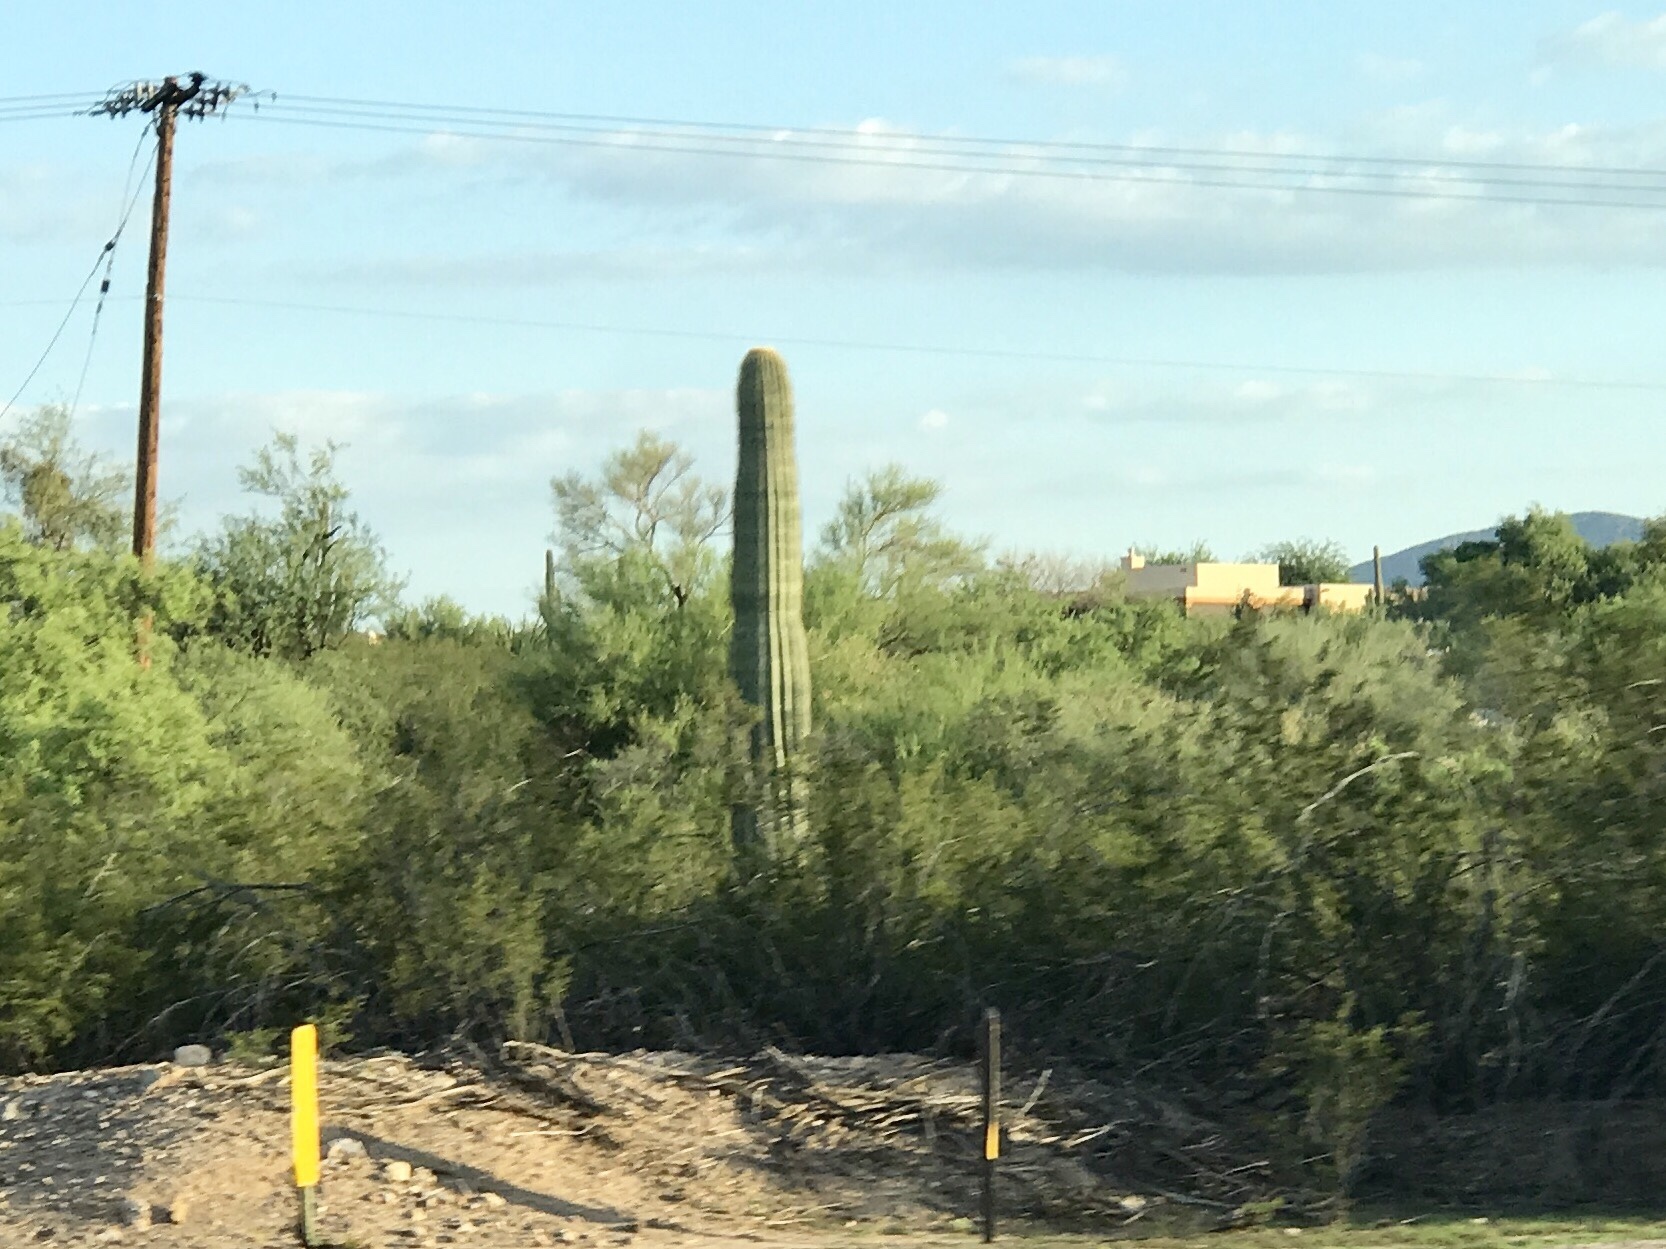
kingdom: Plantae
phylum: Tracheophyta
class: Magnoliopsida
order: Caryophyllales
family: Cactaceae
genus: Carnegiea
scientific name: Carnegiea gigantea
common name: Saguaro
